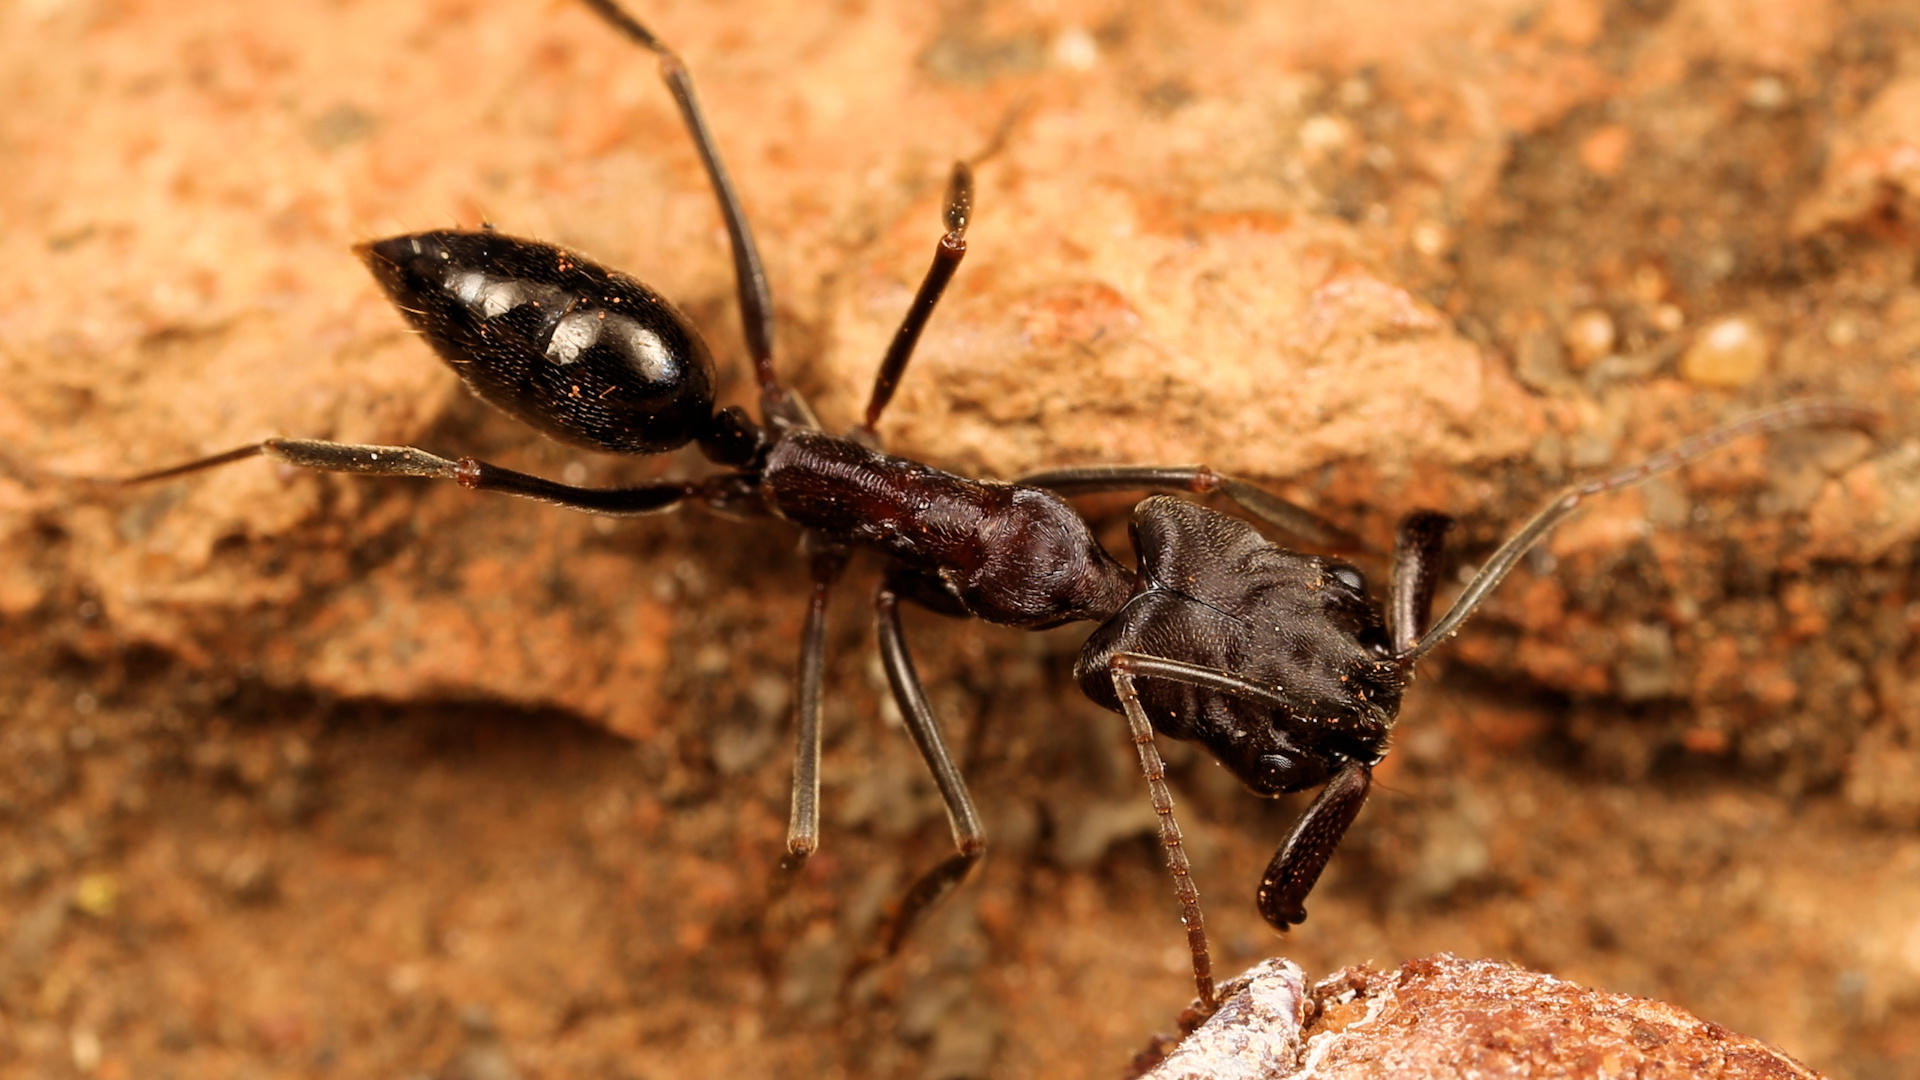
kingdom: Animalia
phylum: Arthropoda
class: Insecta
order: Hymenoptera
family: Formicidae
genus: Odontomachus
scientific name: Odontomachus troglodytes
